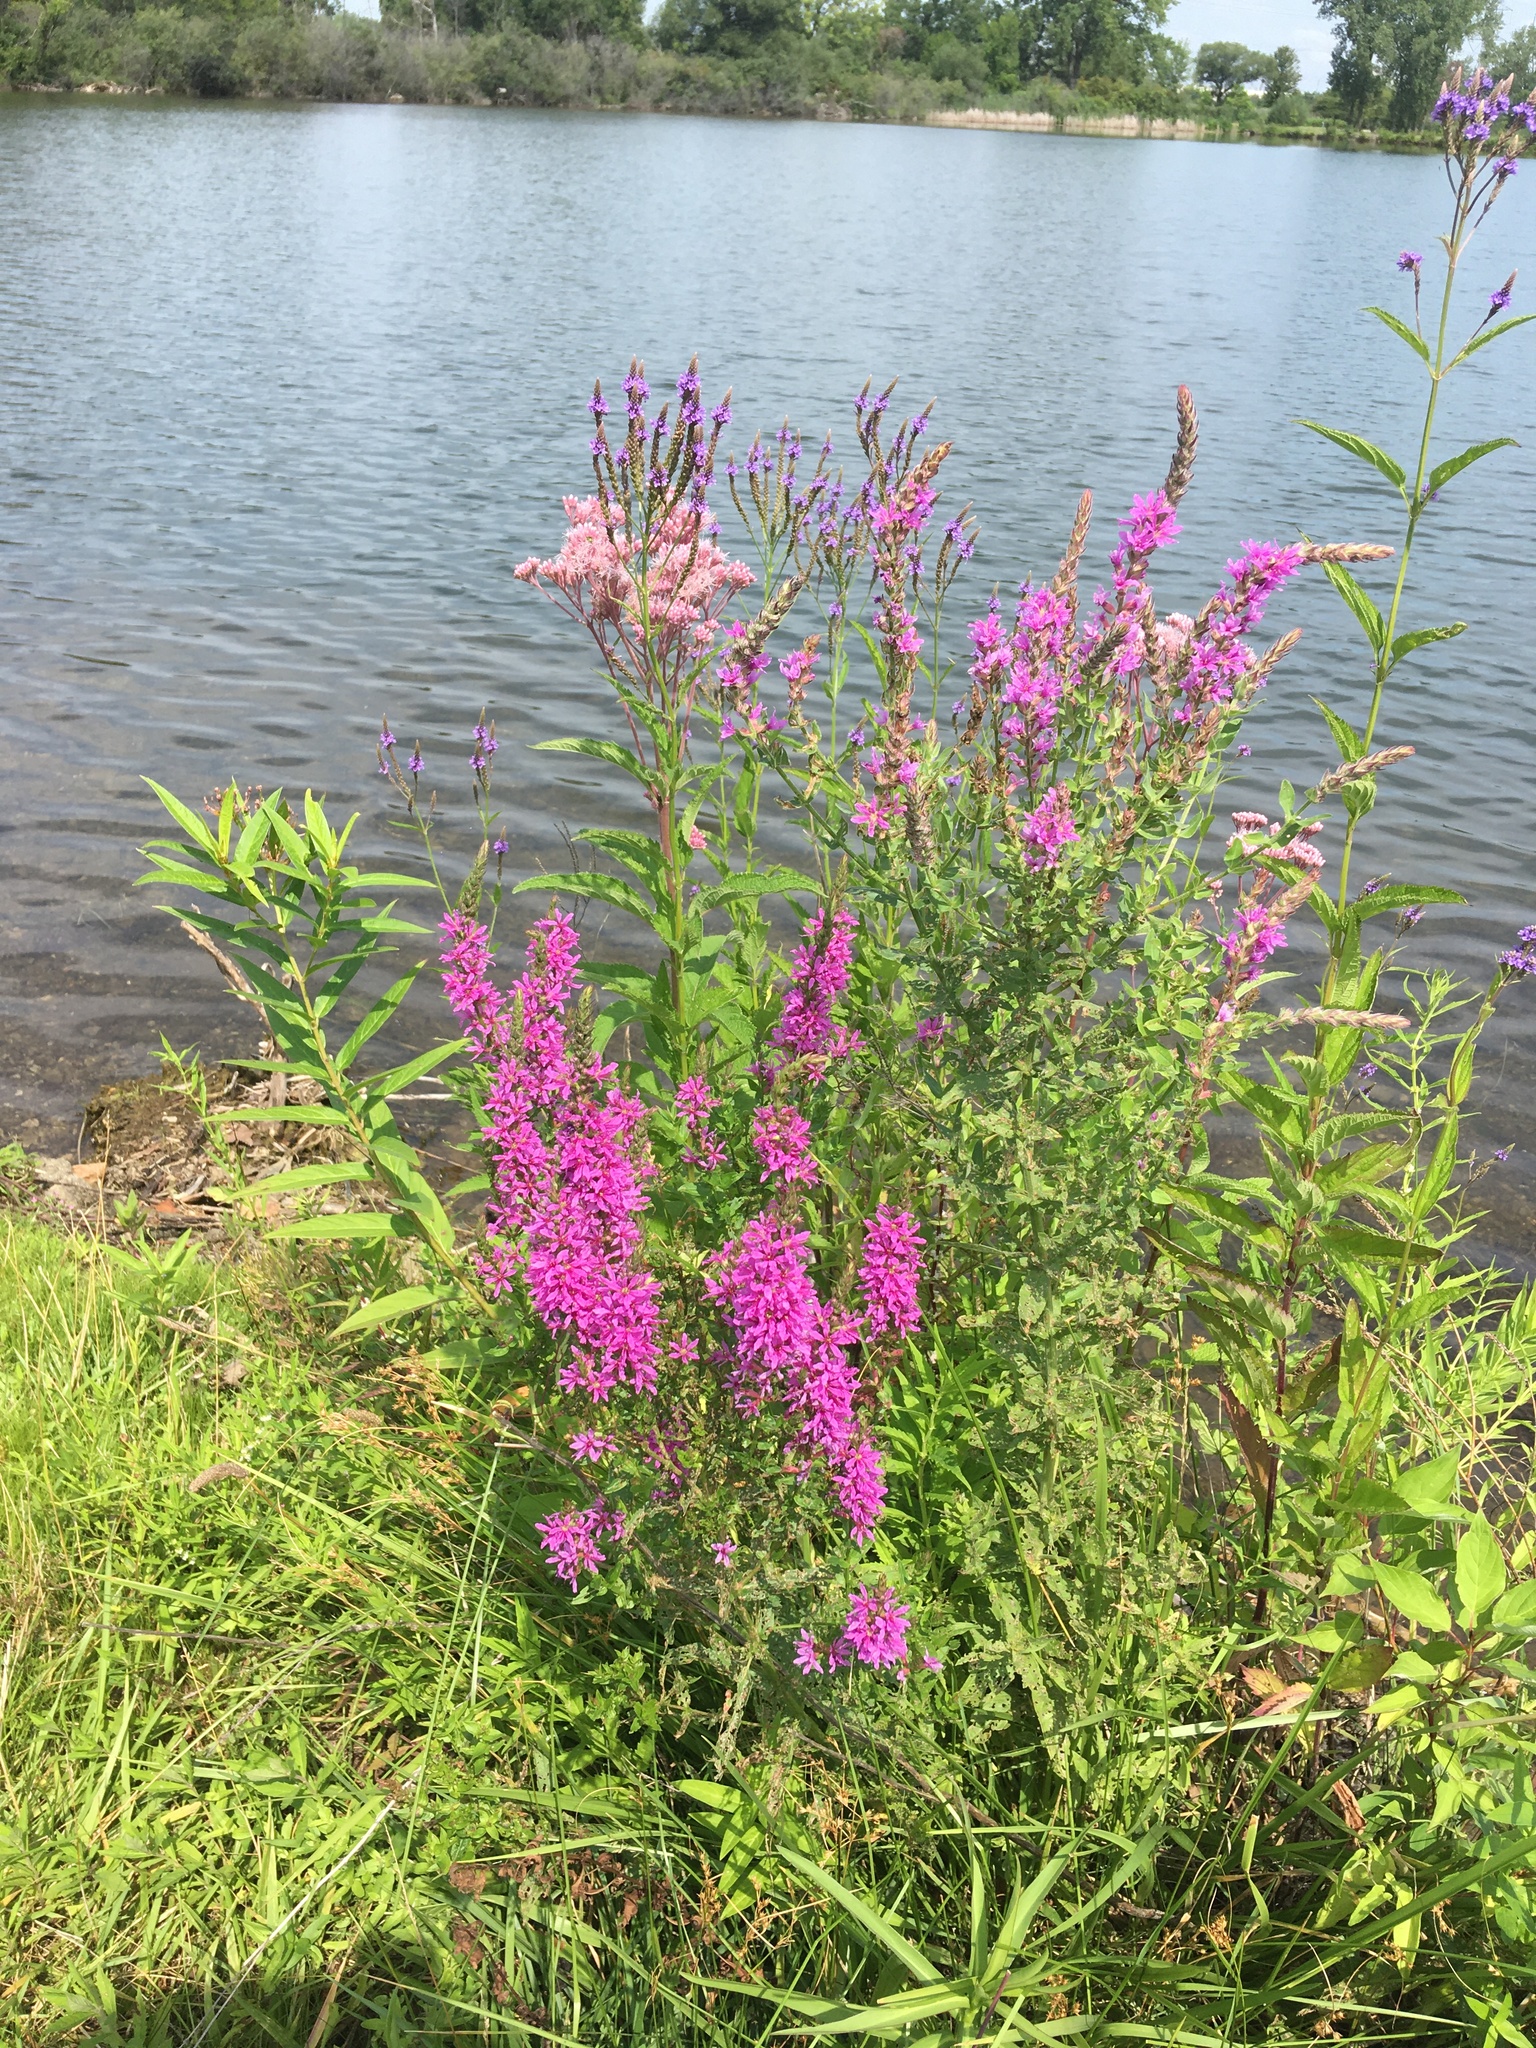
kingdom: Plantae
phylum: Tracheophyta
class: Magnoliopsida
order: Myrtales
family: Lythraceae
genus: Lythrum
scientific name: Lythrum salicaria
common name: Purple loosestrife
